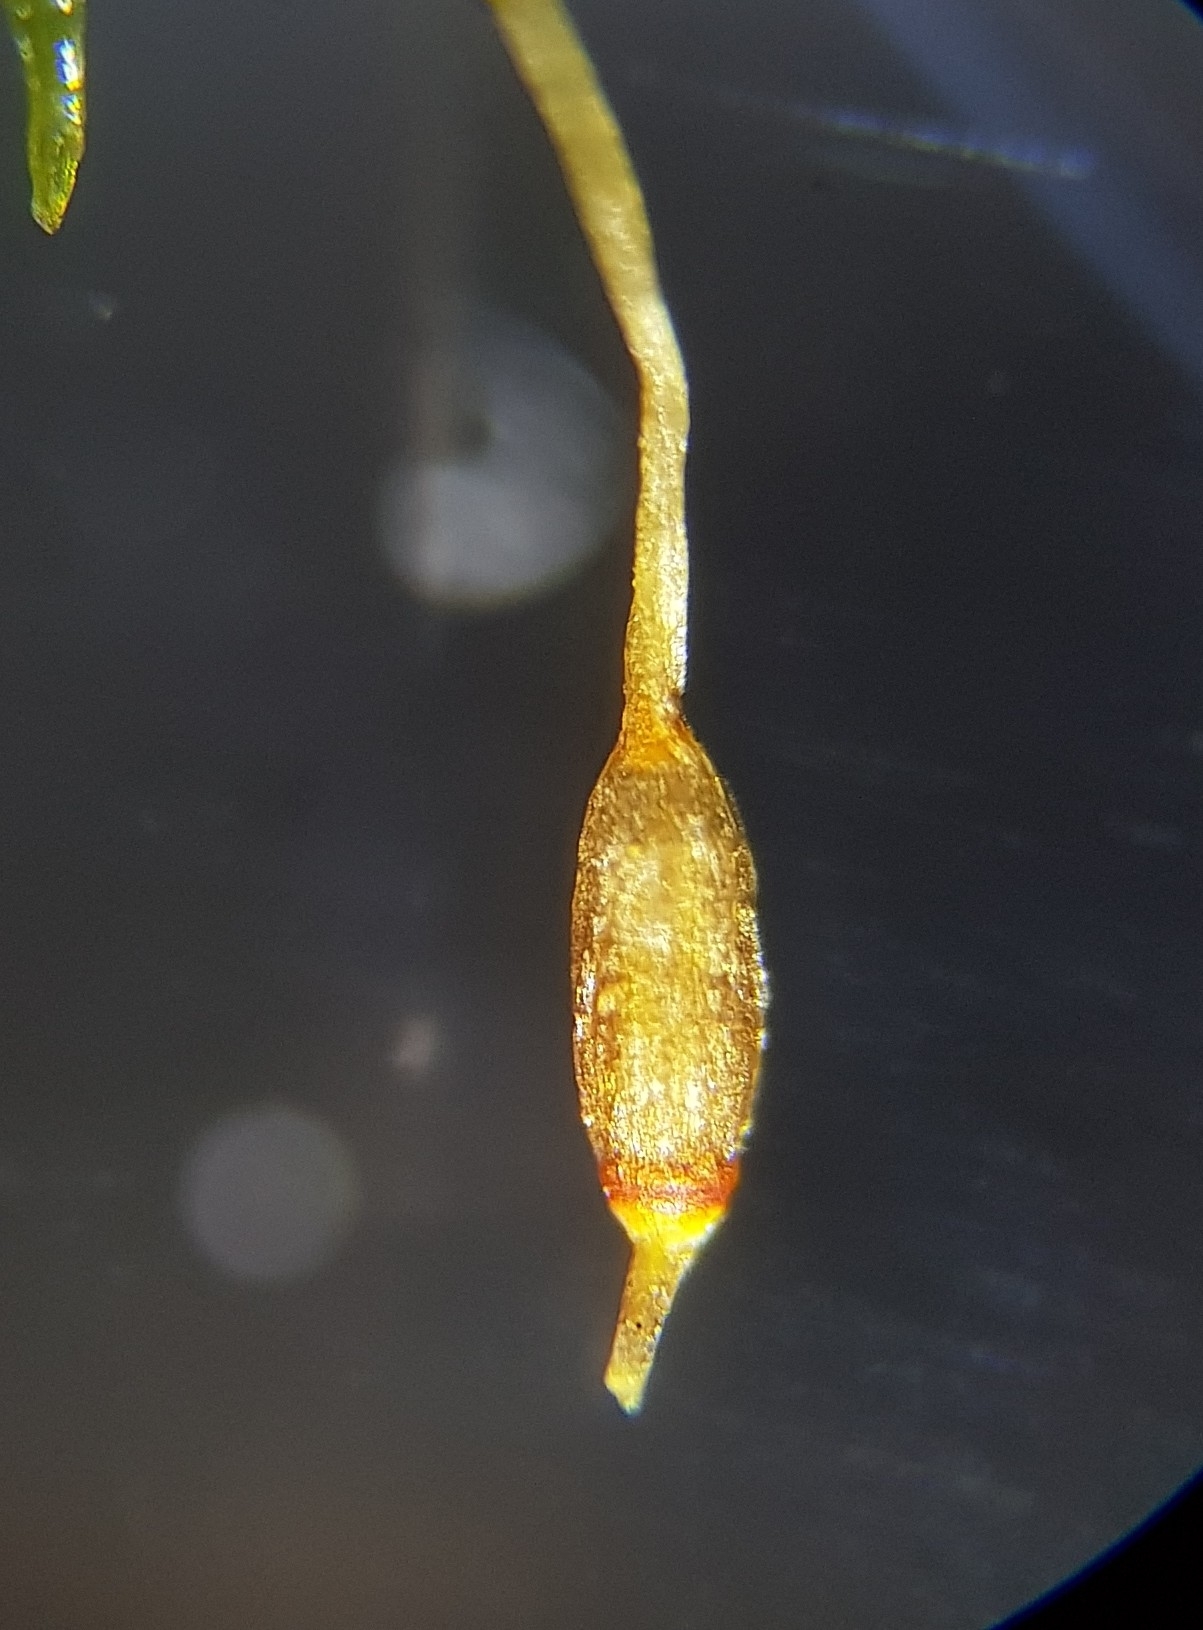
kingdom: Plantae
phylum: Bryophyta
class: Bryopsida
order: Dicranales
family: Rhabdoweisiaceae
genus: Dicranoweisia
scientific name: Dicranoweisia cirrata
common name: Common pincushion
